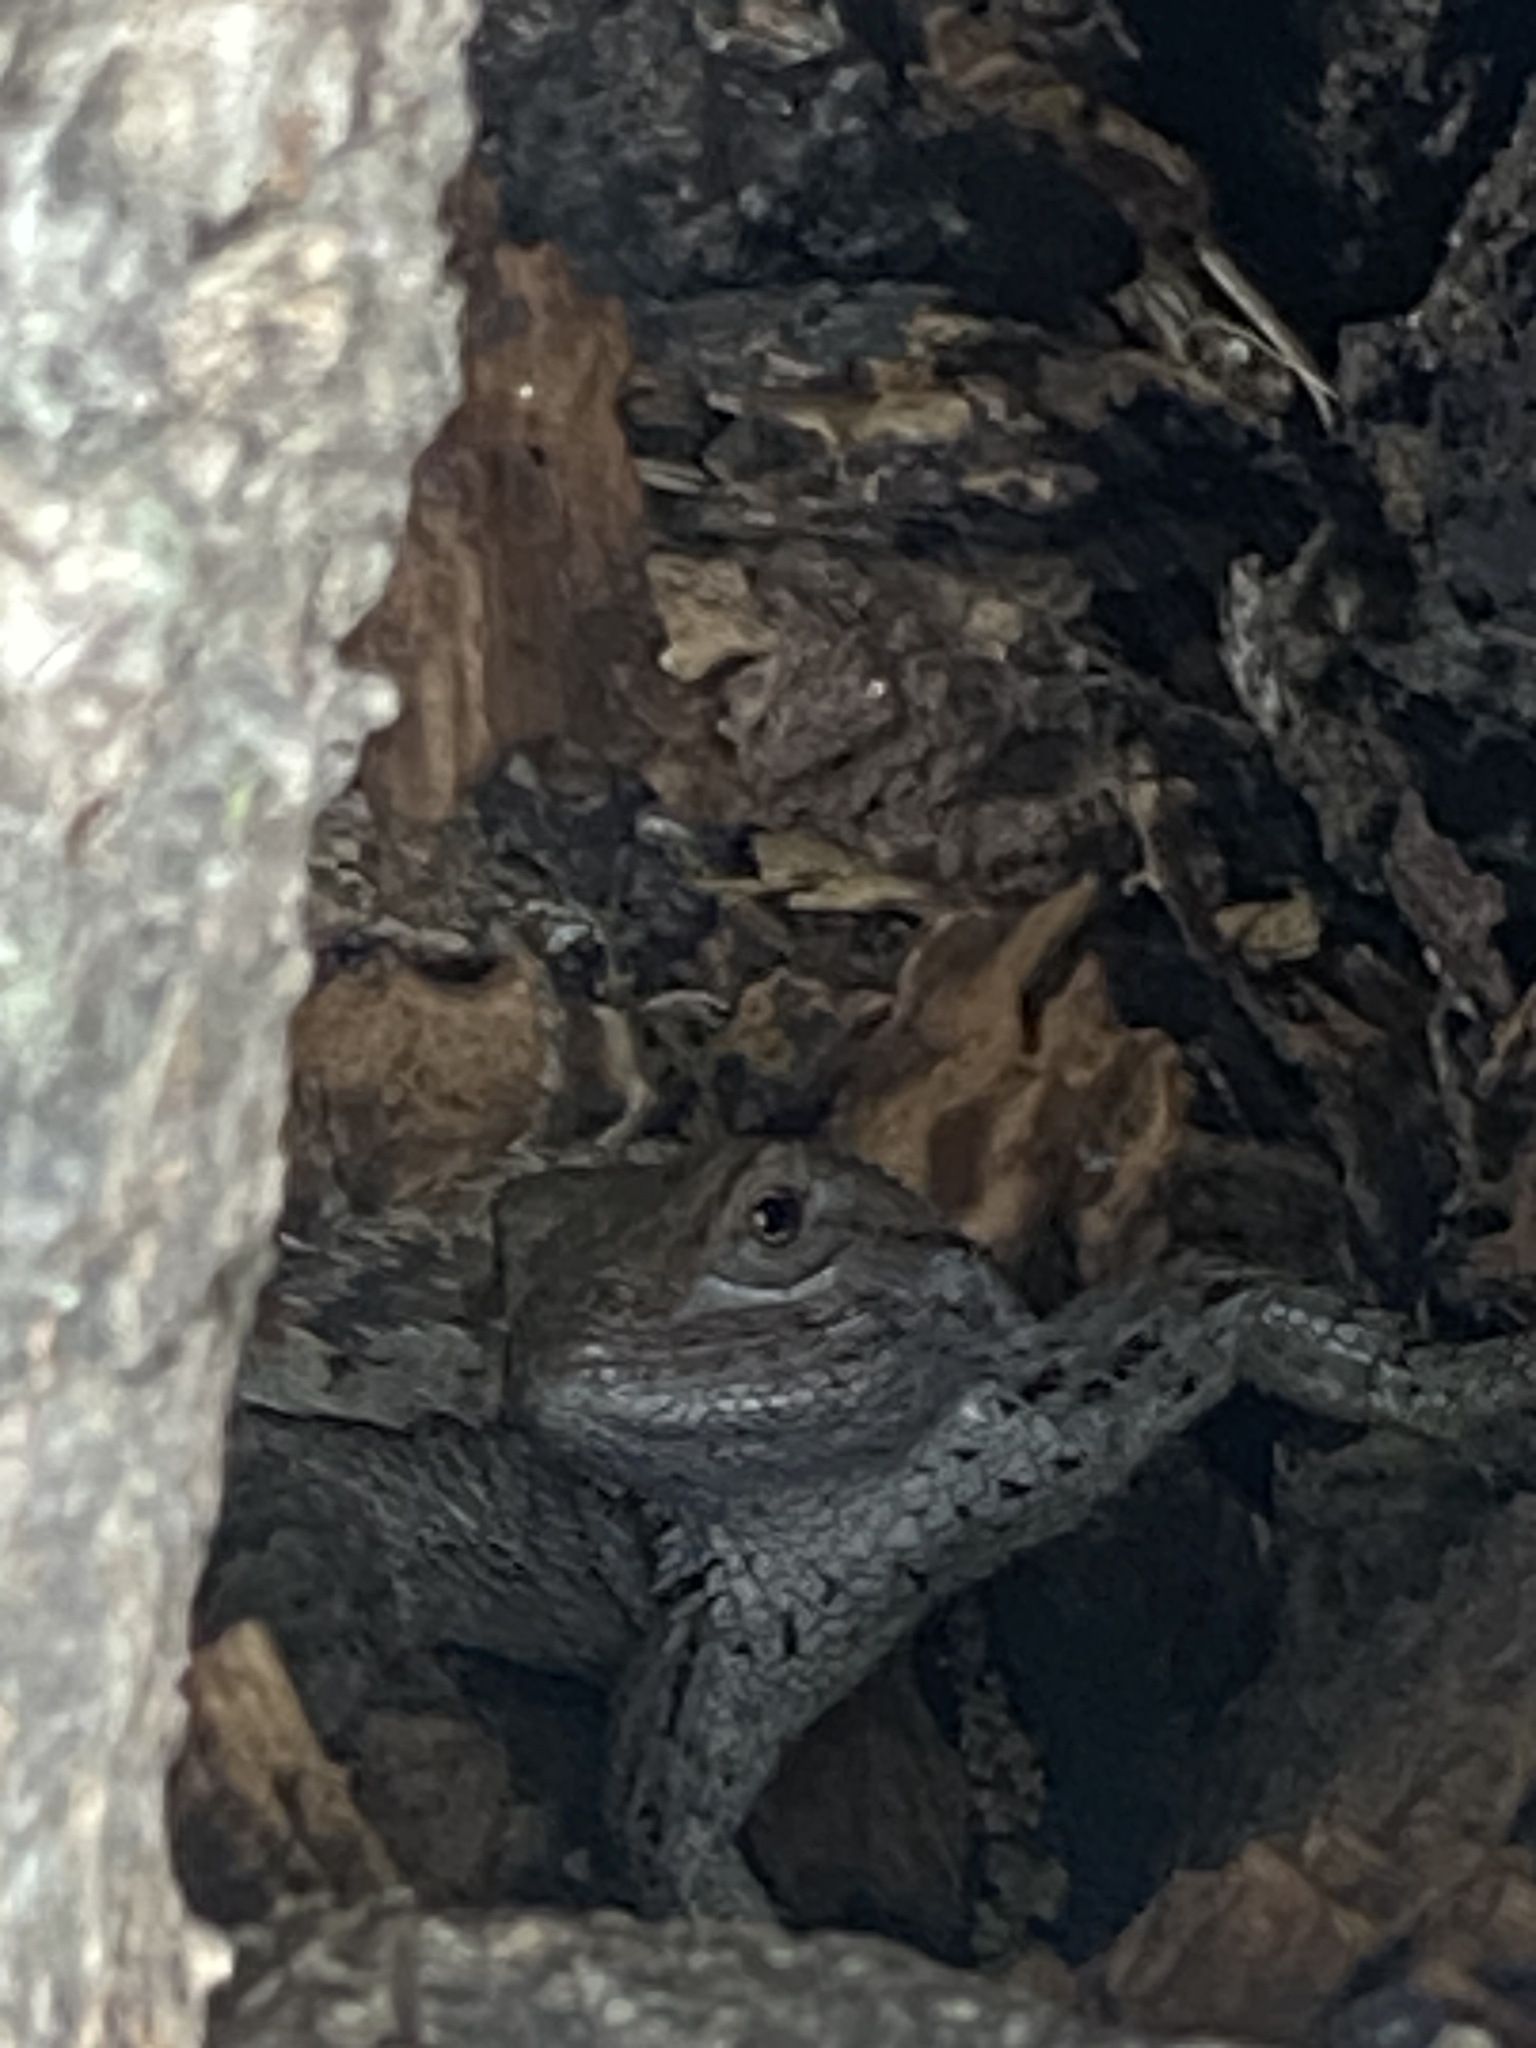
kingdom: Animalia
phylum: Chordata
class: Squamata
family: Phrynosomatidae
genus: Sceloporus
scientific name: Sceloporus olivaceus
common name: Texas spiny lizard
